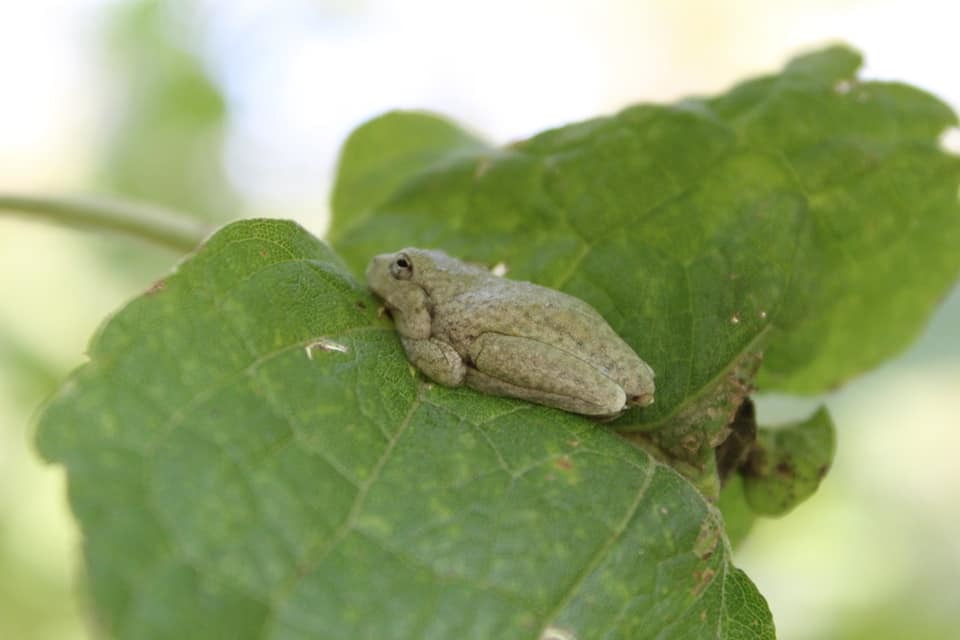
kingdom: Animalia
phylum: Chordata
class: Amphibia
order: Anura
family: Hylidae
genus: Rheohyla
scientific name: Rheohyla miotympanum
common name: Small-eard hyla
